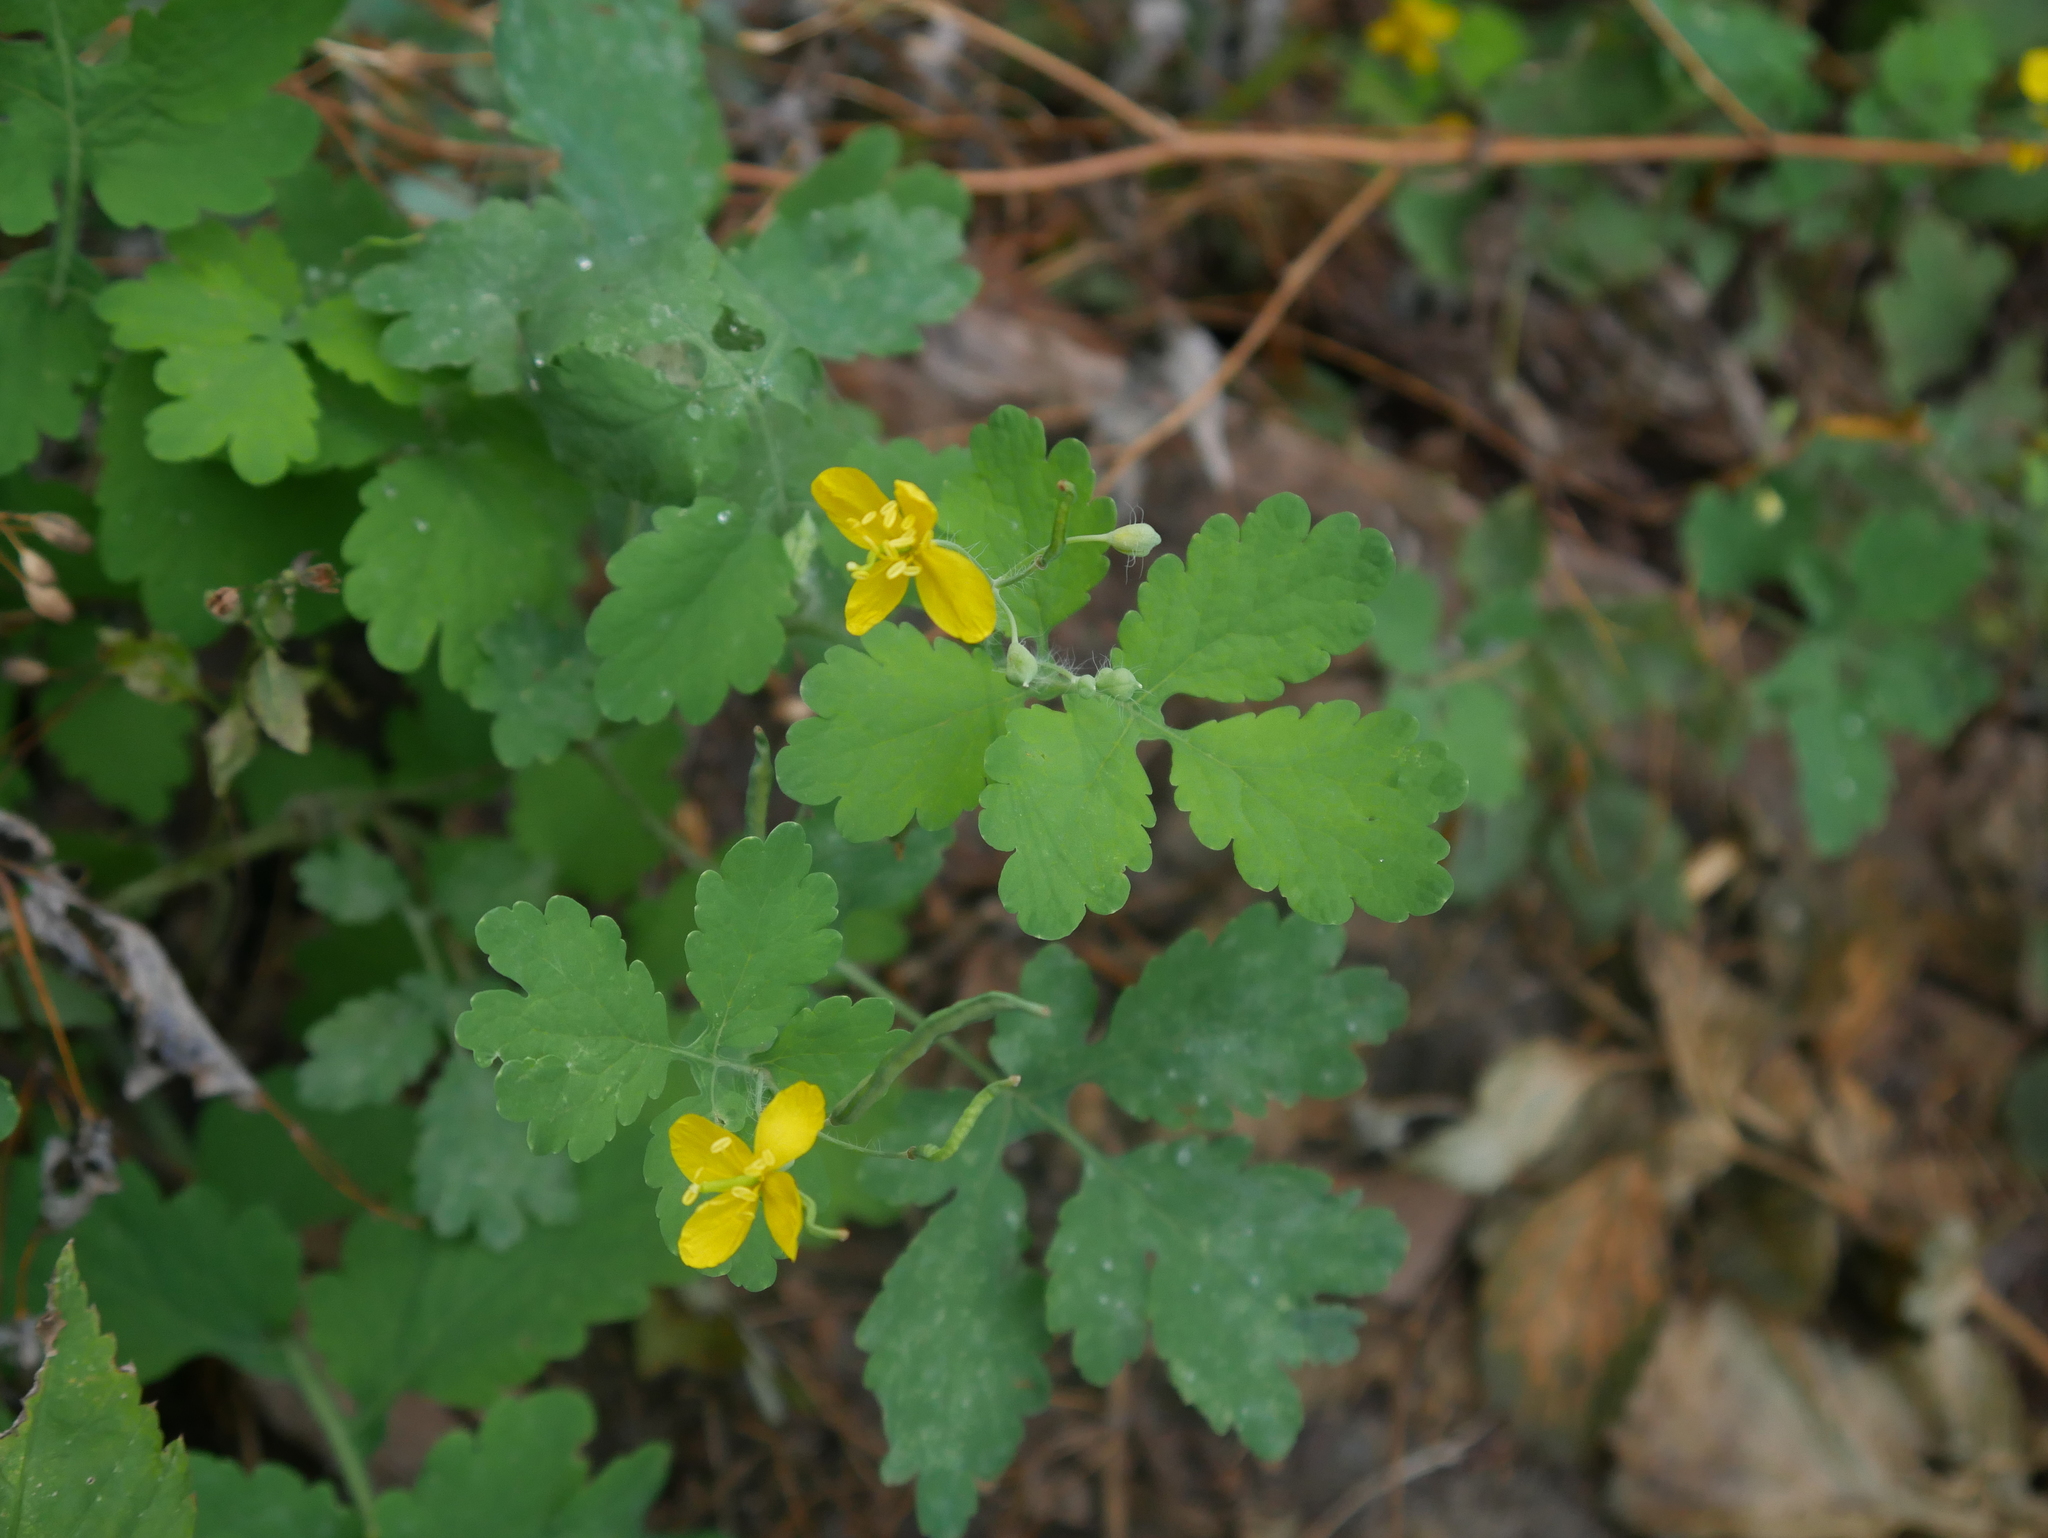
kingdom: Plantae
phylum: Tracheophyta
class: Magnoliopsida
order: Ranunculales
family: Papaveraceae
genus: Chelidonium
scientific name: Chelidonium majus
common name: Greater celandine
